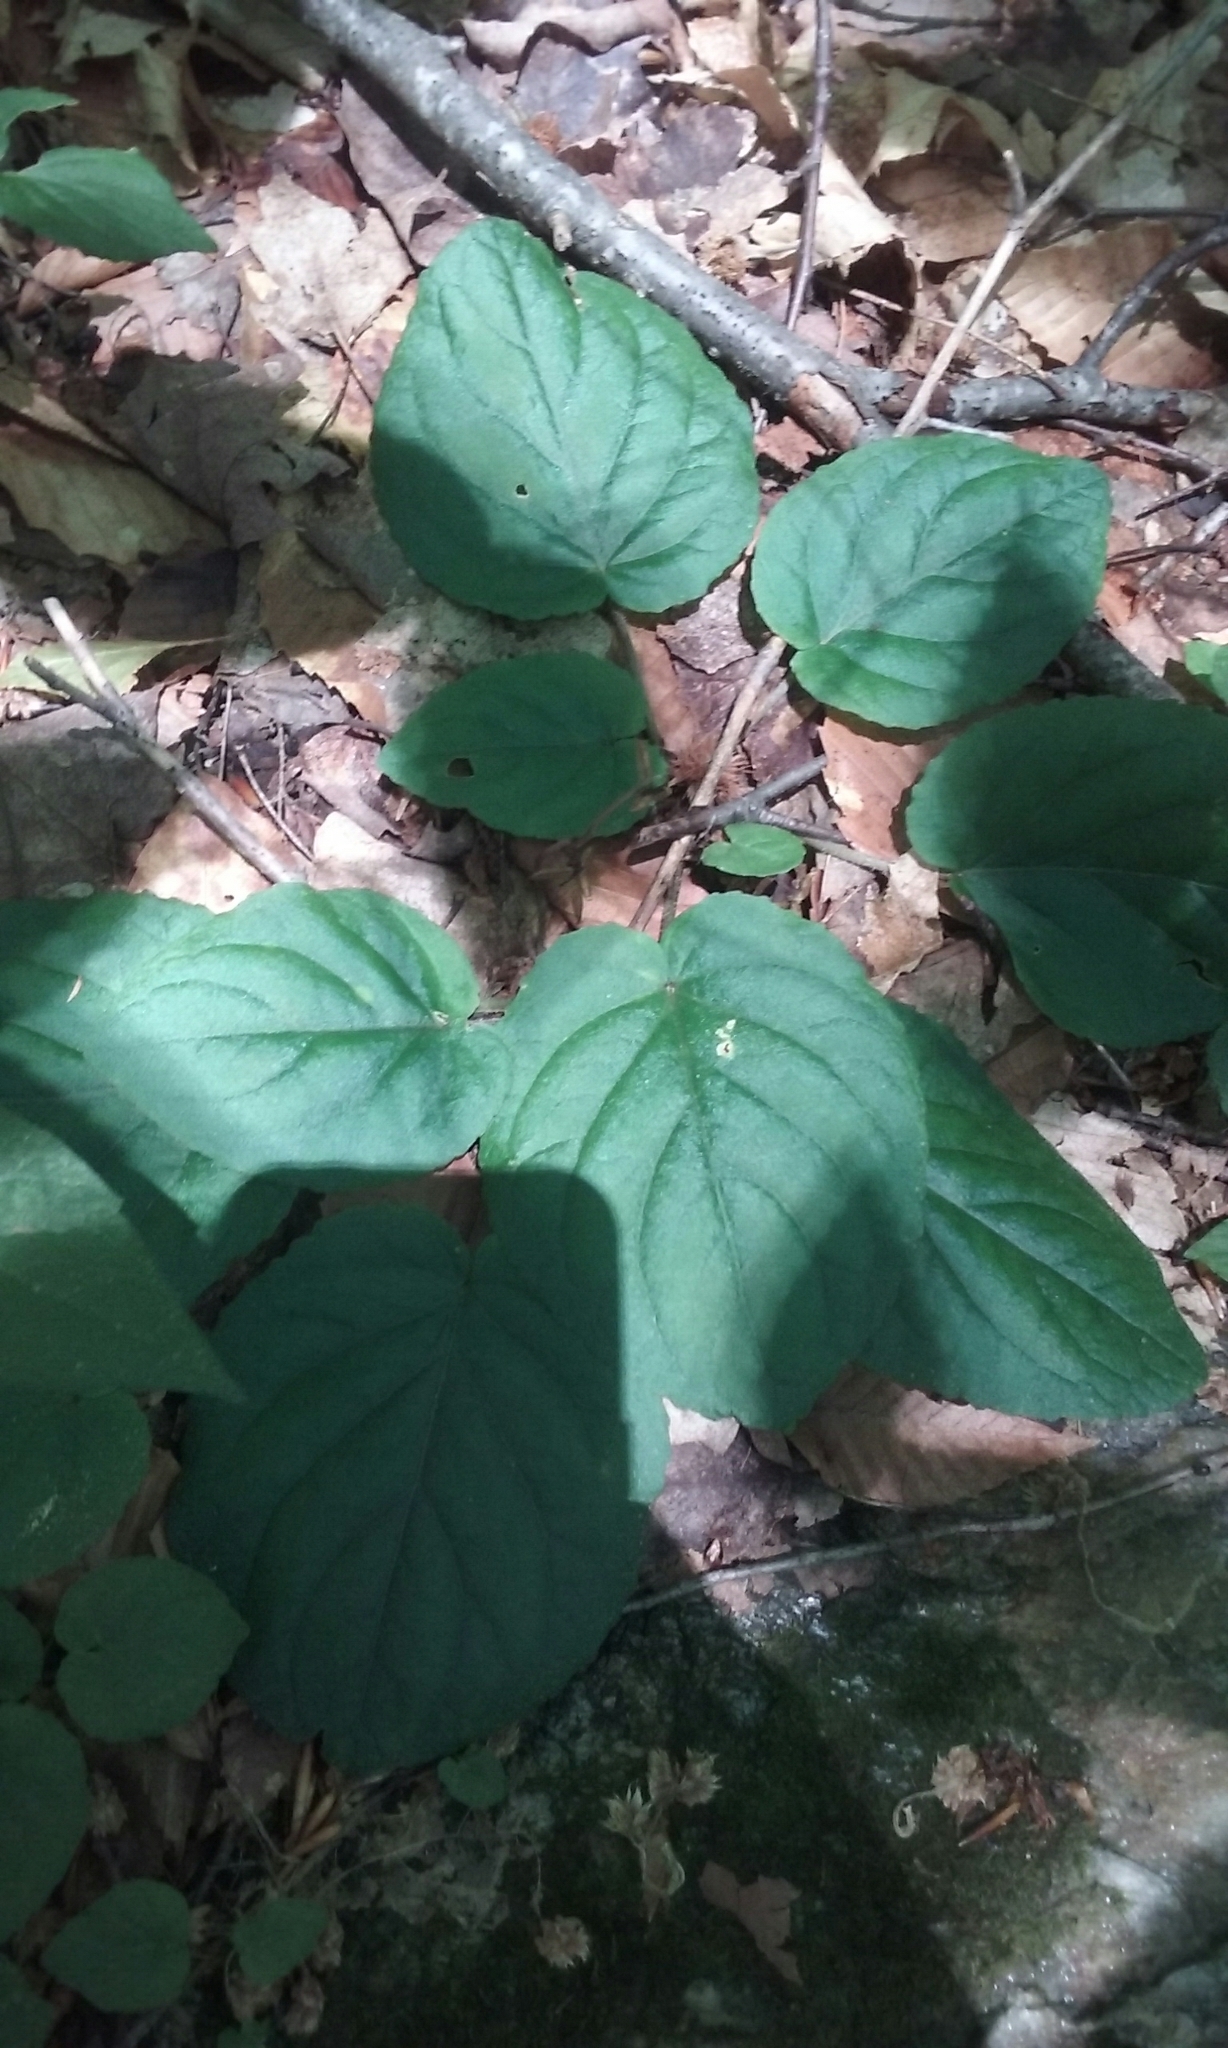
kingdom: Plantae
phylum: Tracheophyta
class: Magnoliopsida
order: Malpighiales
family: Violaceae
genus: Viola
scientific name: Viola rotundifolia
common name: Early yellow violet
